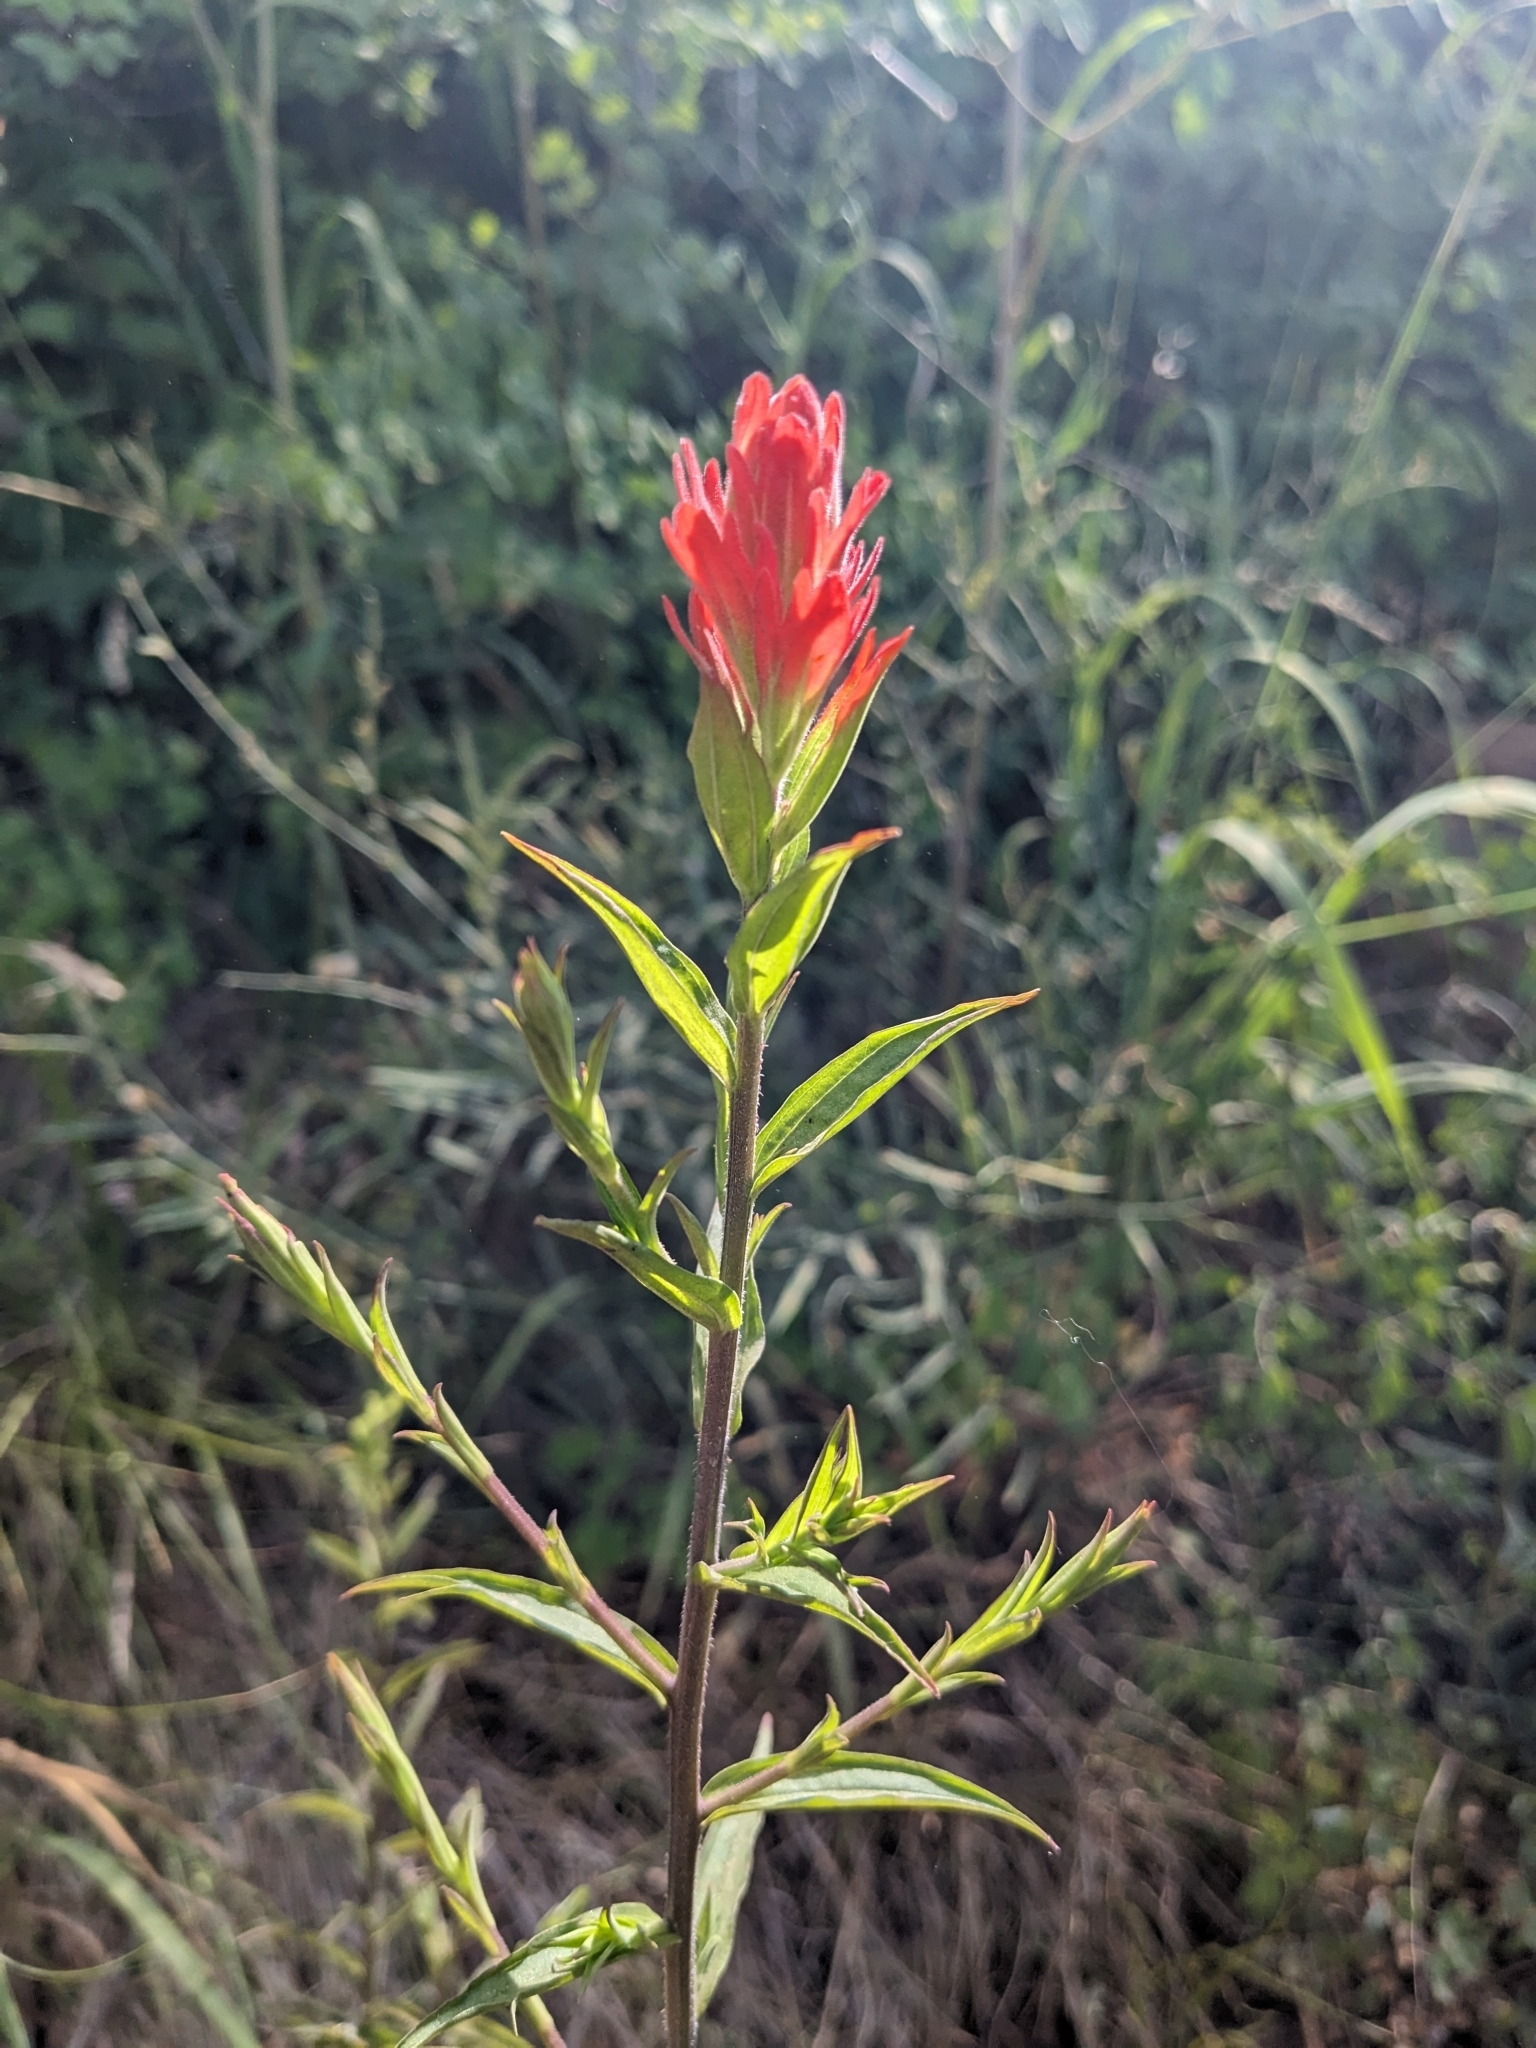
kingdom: Plantae
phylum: Tracheophyta
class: Magnoliopsida
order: Lamiales
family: Orobanchaceae
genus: Castilleja
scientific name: Castilleja nelsonii
